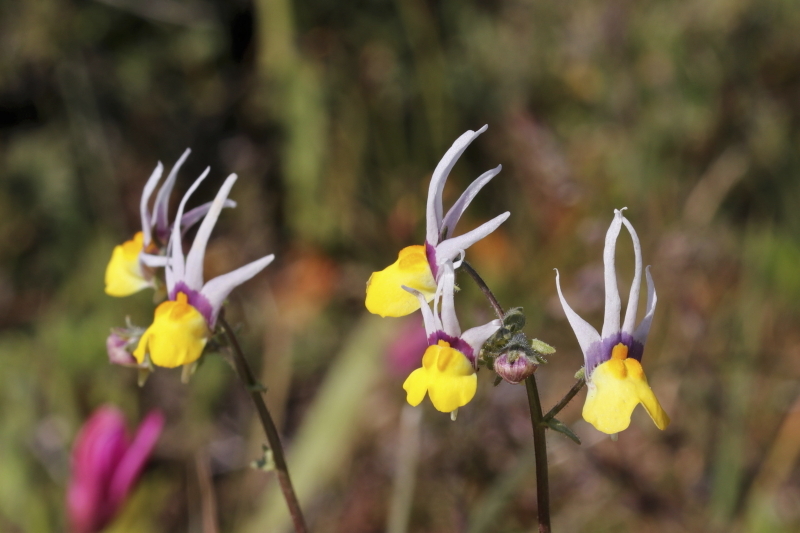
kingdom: Plantae
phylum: Tracheophyta
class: Magnoliopsida
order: Lamiales
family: Scrophulariaceae
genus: Nemesia
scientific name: Nemesia cheiranthus
